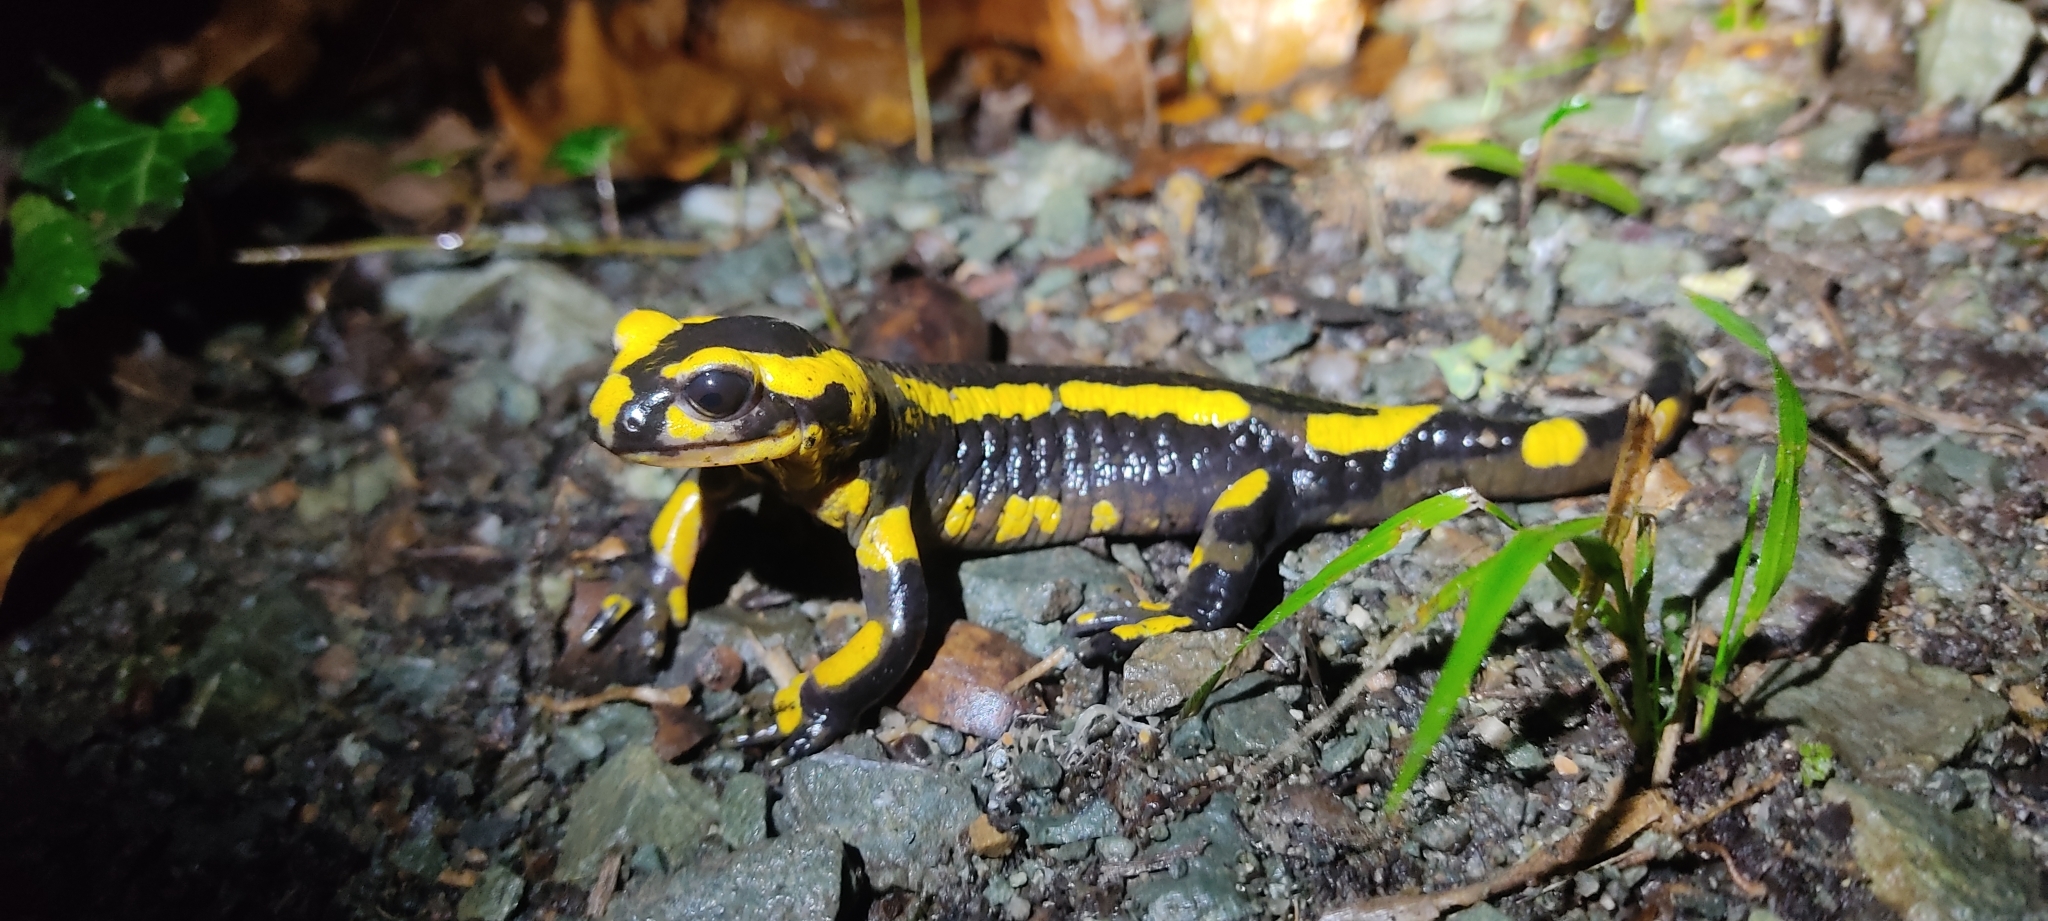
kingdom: Animalia
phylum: Chordata
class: Amphibia
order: Caudata
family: Salamandridae
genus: Salamandra
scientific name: Salamandra salamandra
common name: Fire salamander
